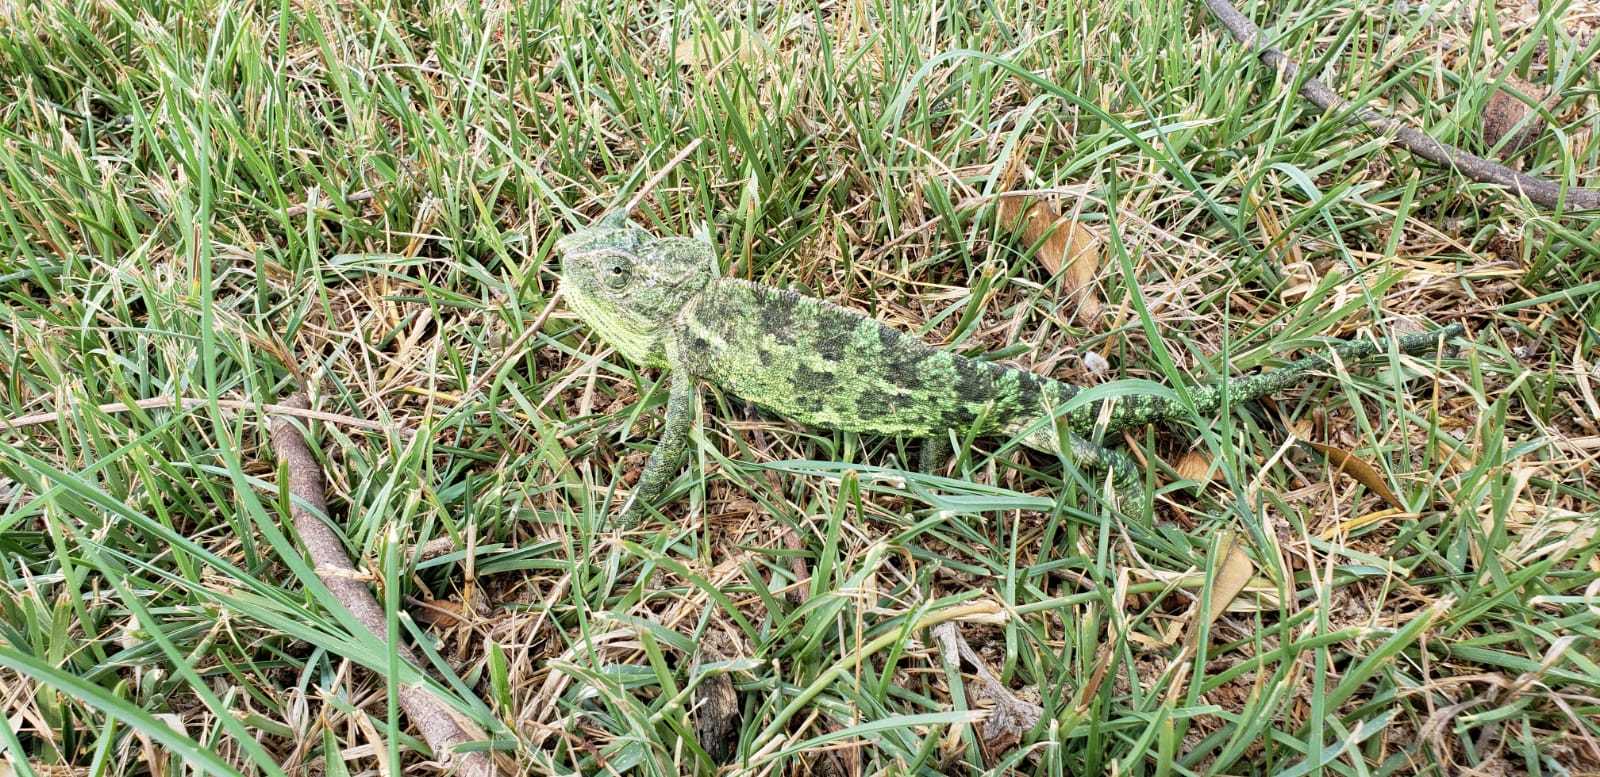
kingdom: Animalia
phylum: Chordata
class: Squamata
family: Chamaeleonidae
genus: Chamaeleo
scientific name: Chamaeleo chamaeleon
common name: Mediterranean chameleon
